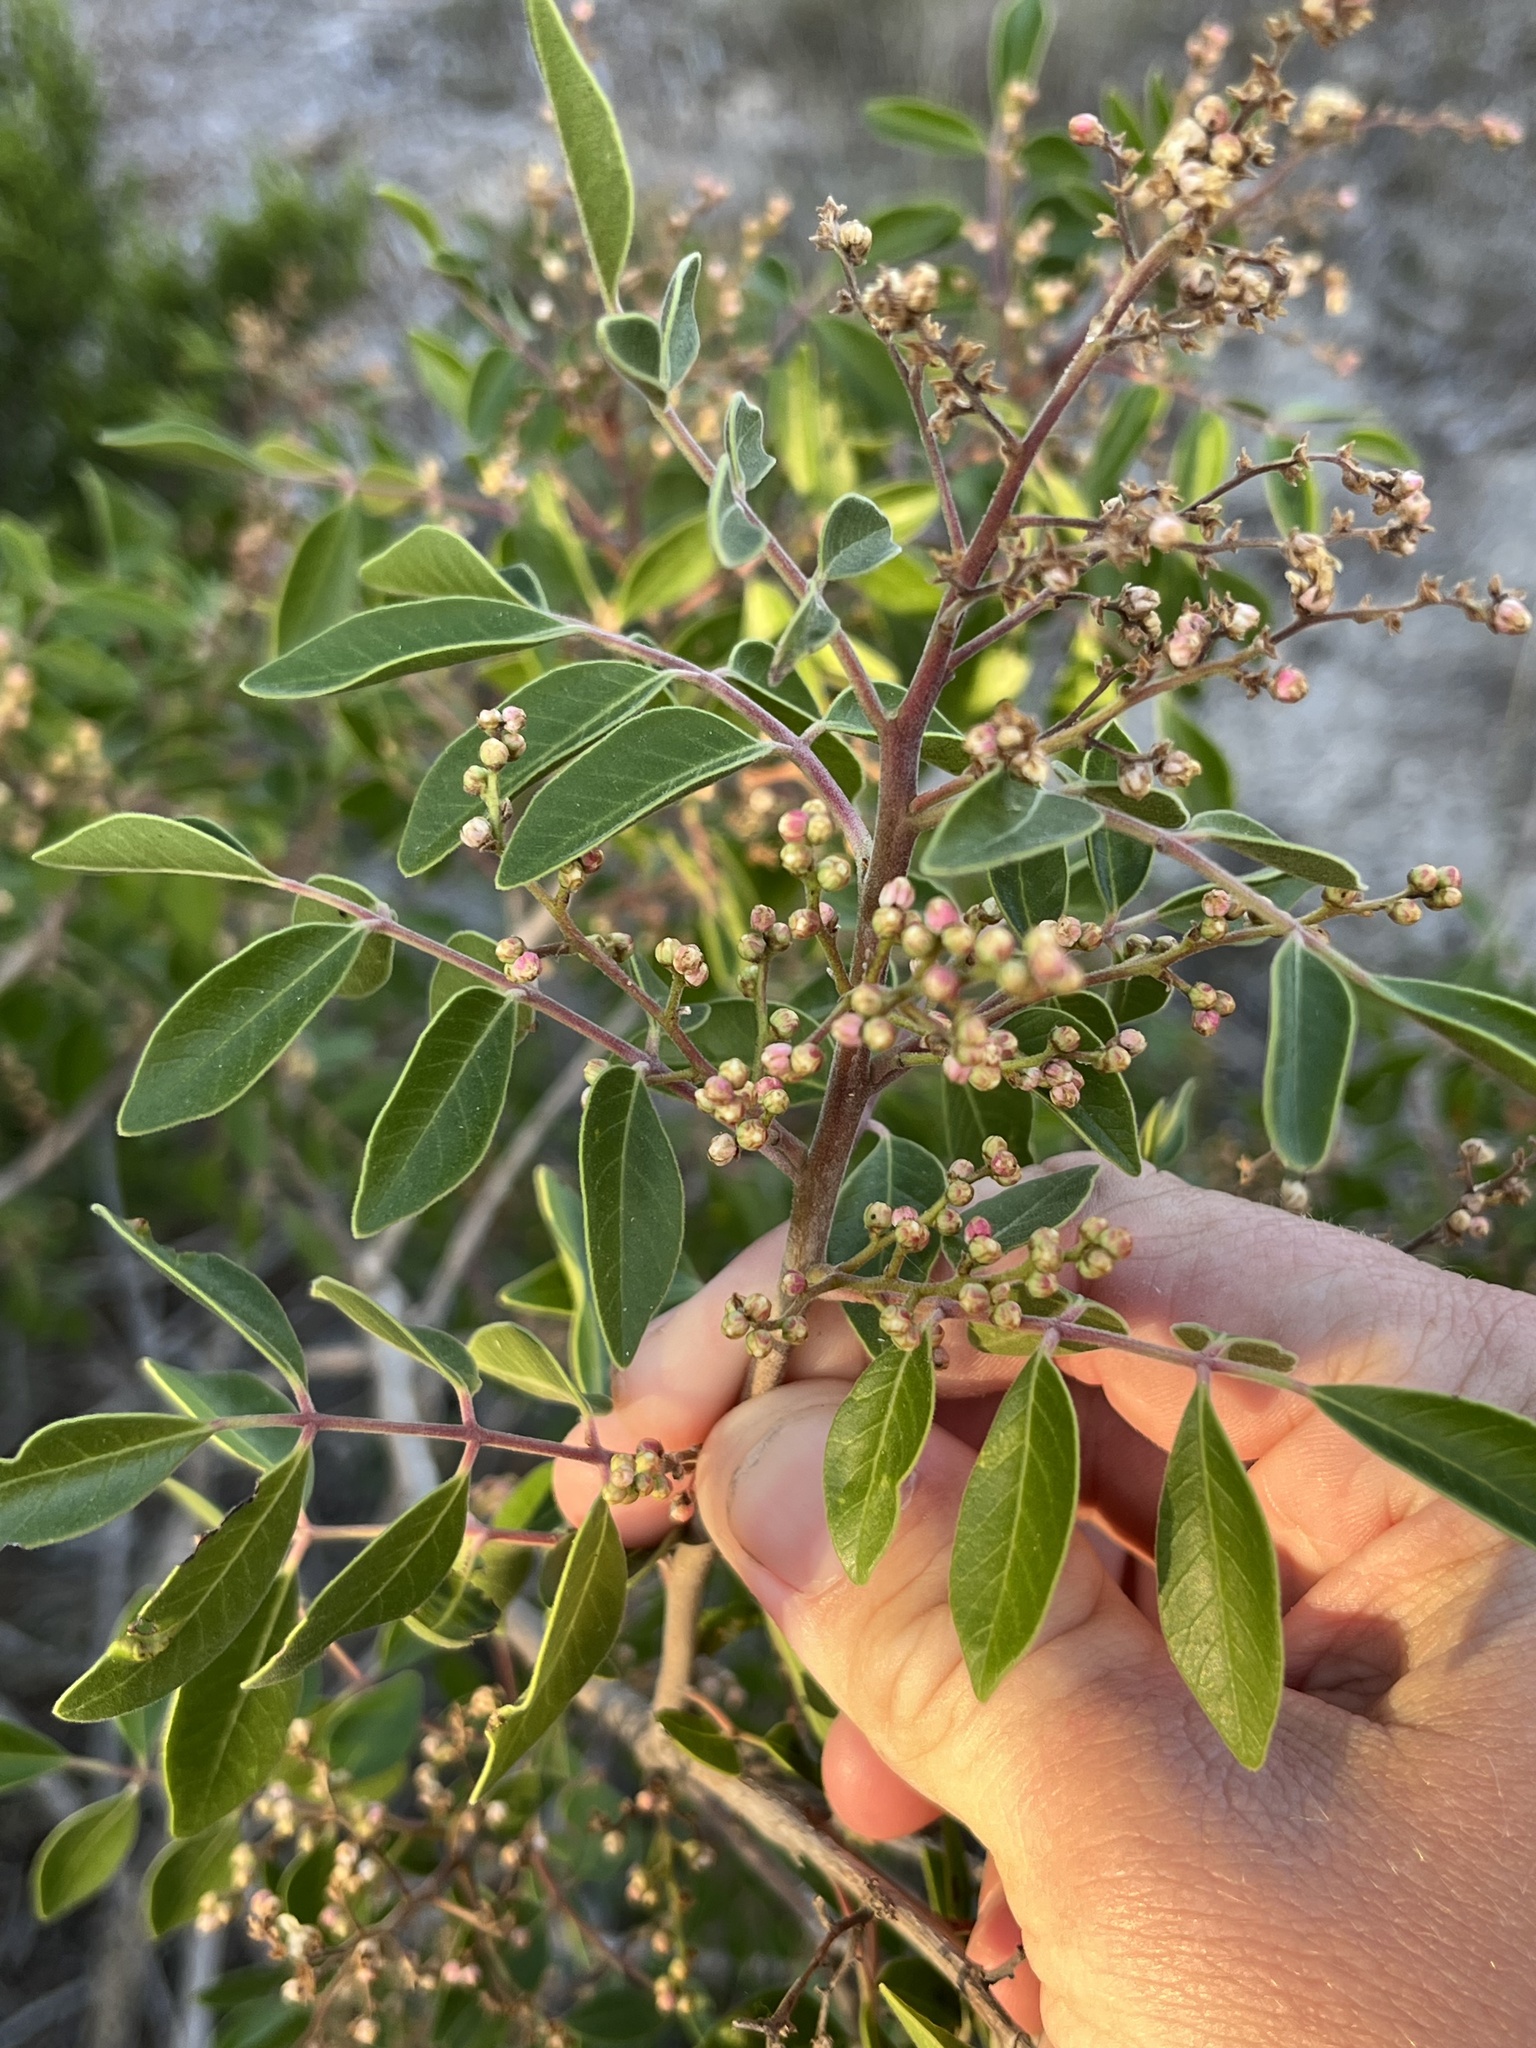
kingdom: Plantae
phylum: Tracheophyta
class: Magnoliopsida
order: Sapindales
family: Anacardiaceae
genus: Rhus
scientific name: Rhus virens
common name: Evergreen sumac
